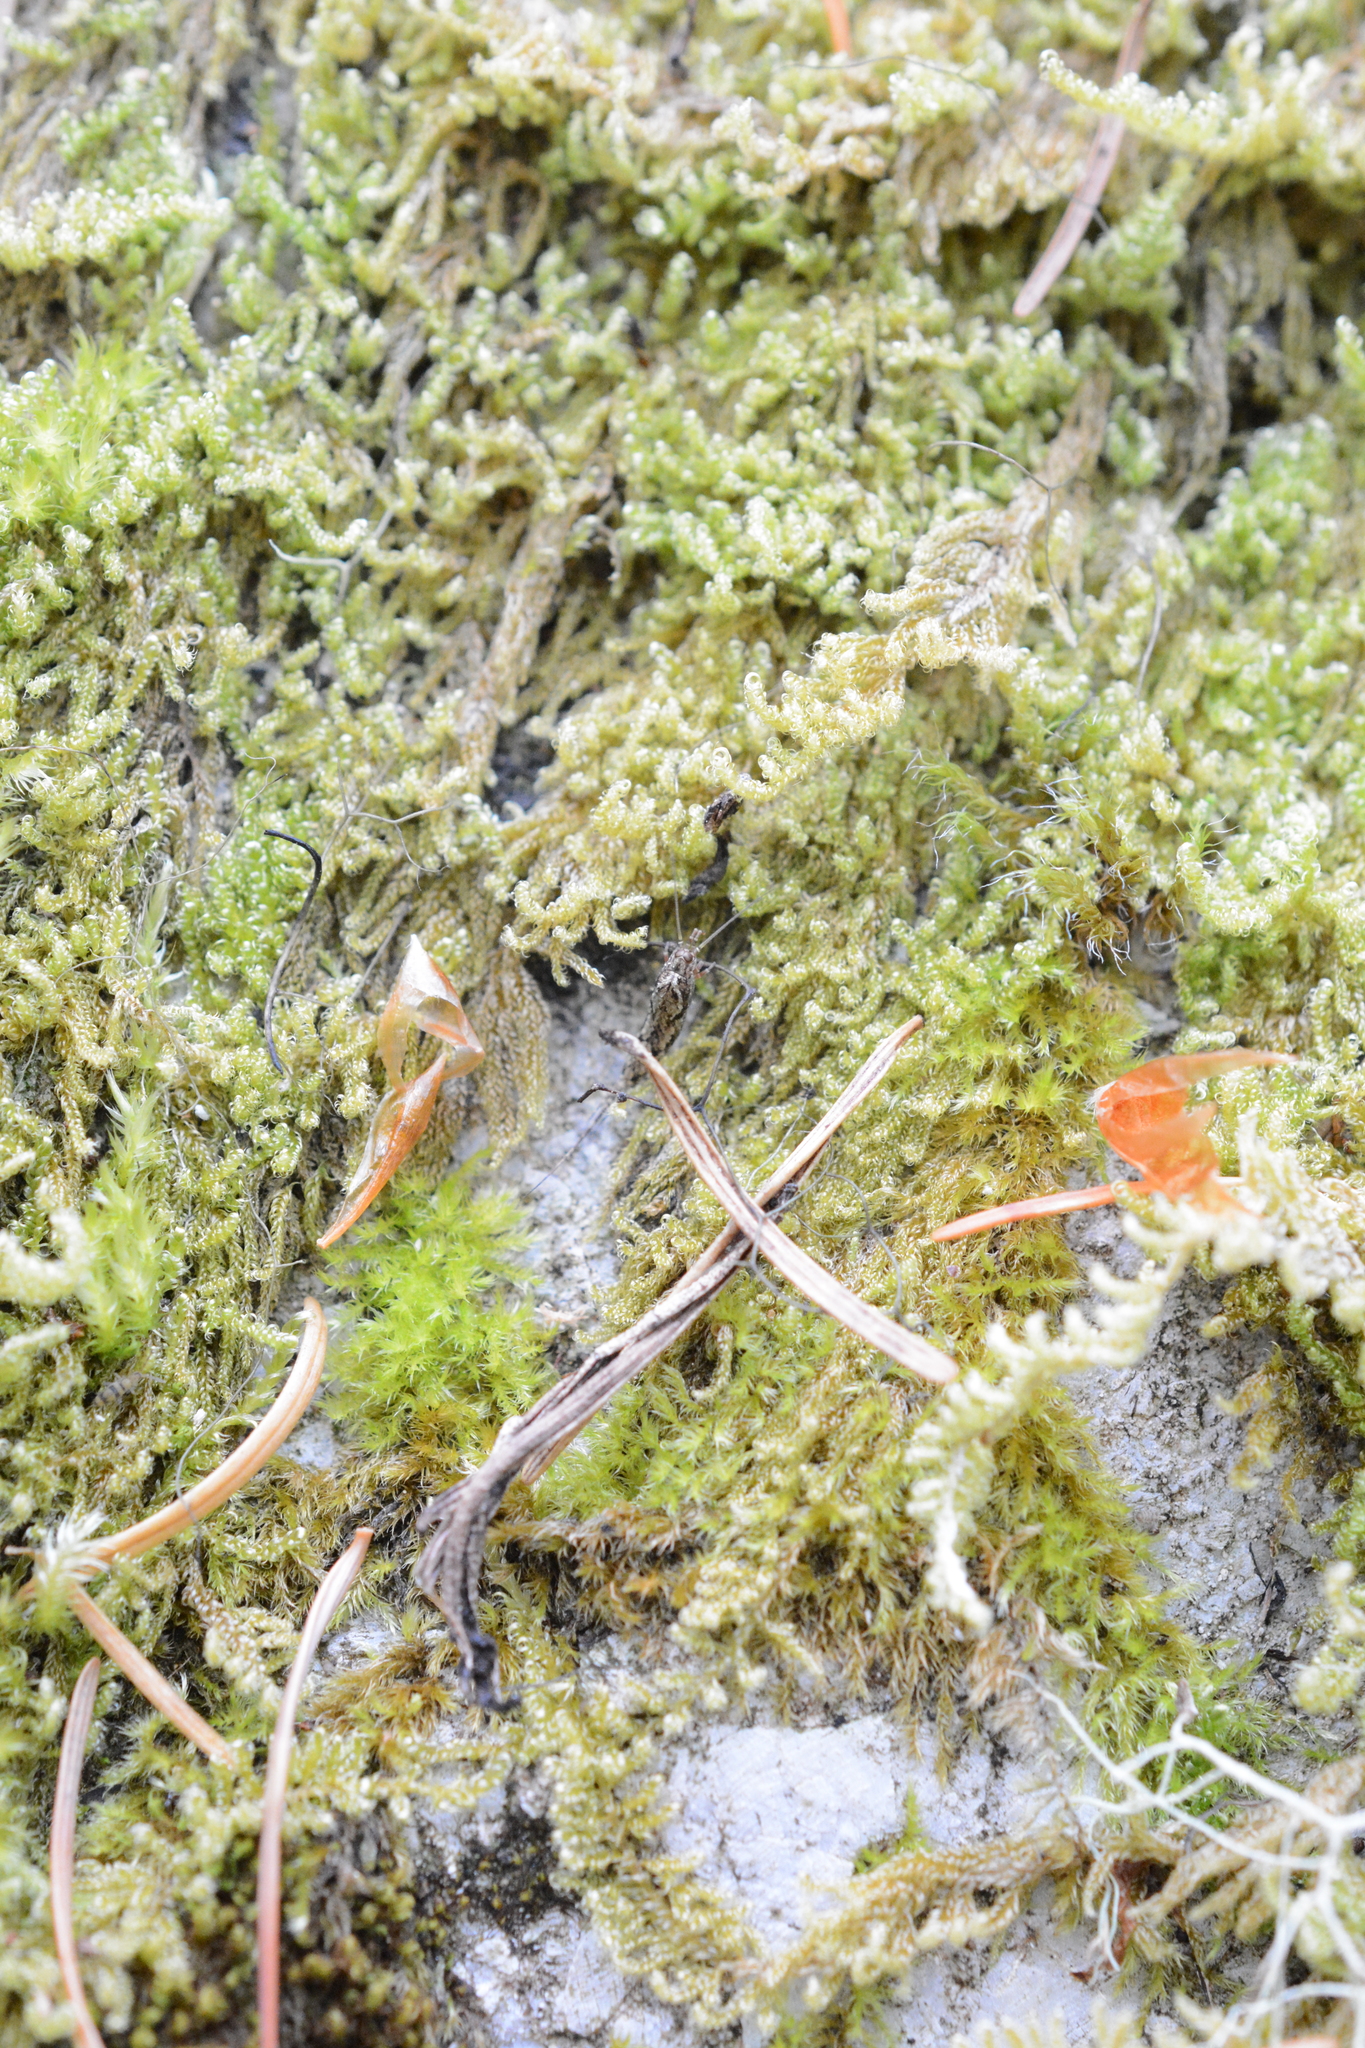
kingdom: Plantae
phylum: Bryophyta
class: Bryopsida
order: Hypnales
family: Stereodontaceae
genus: Stereodon
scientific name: Stereodon subimponens
